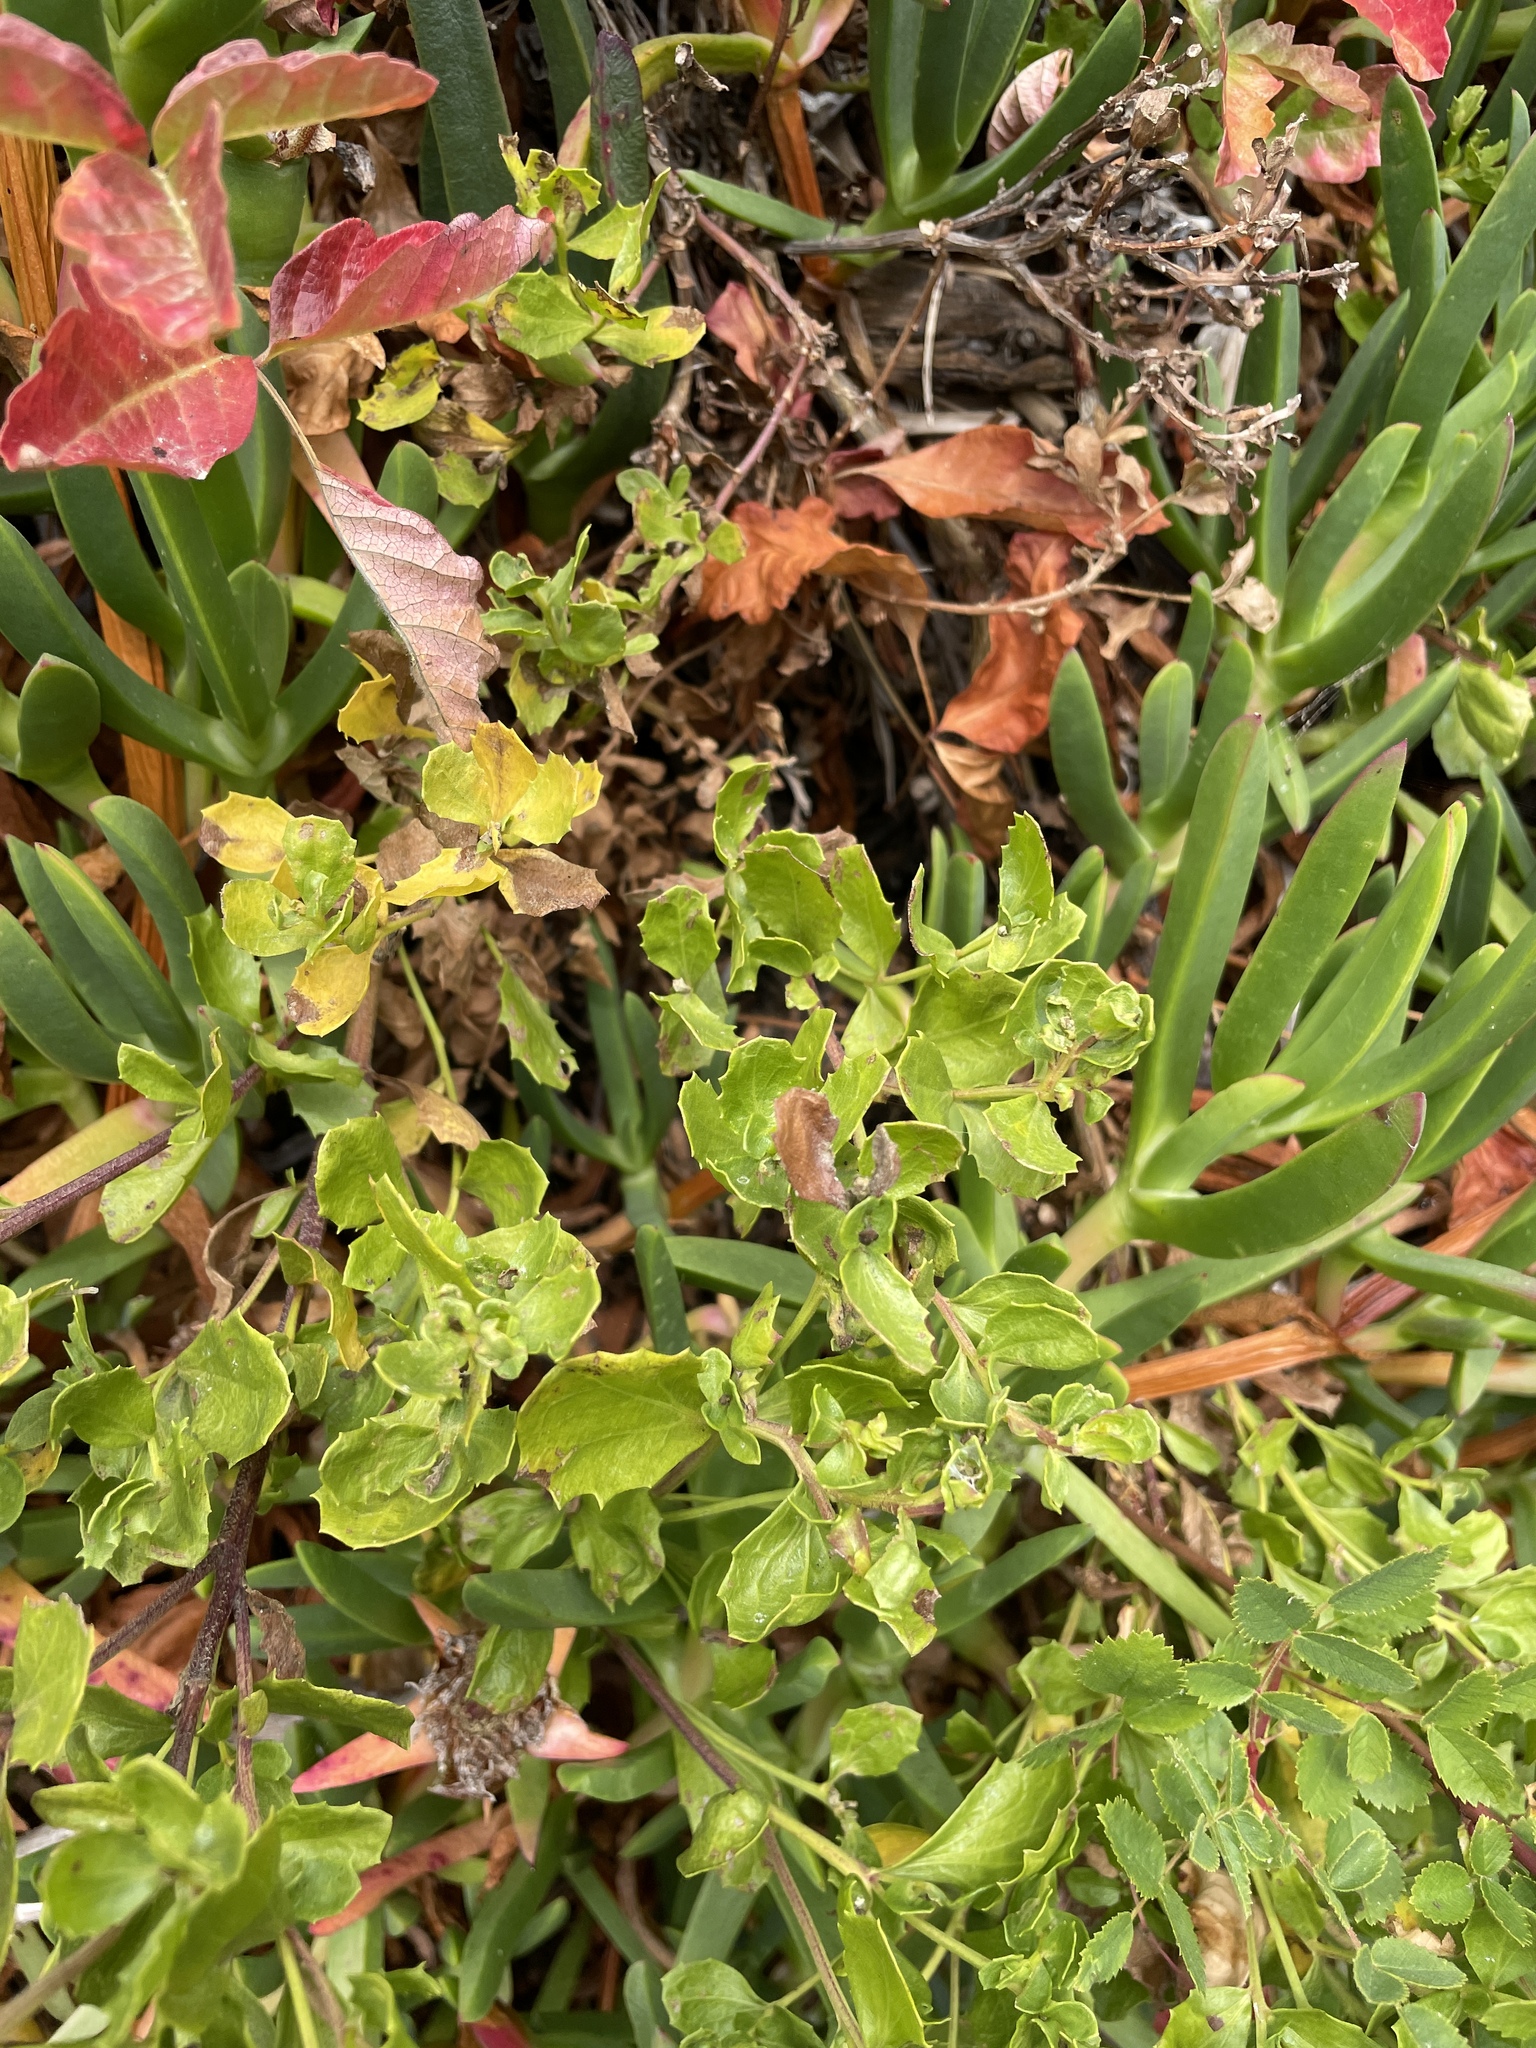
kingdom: Plantae
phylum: Tracheophyta
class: Magnoliopsida
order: Asterales
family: Asteraceae
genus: Baccharis
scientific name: Baccharis pilularis
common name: Coyotebrush
